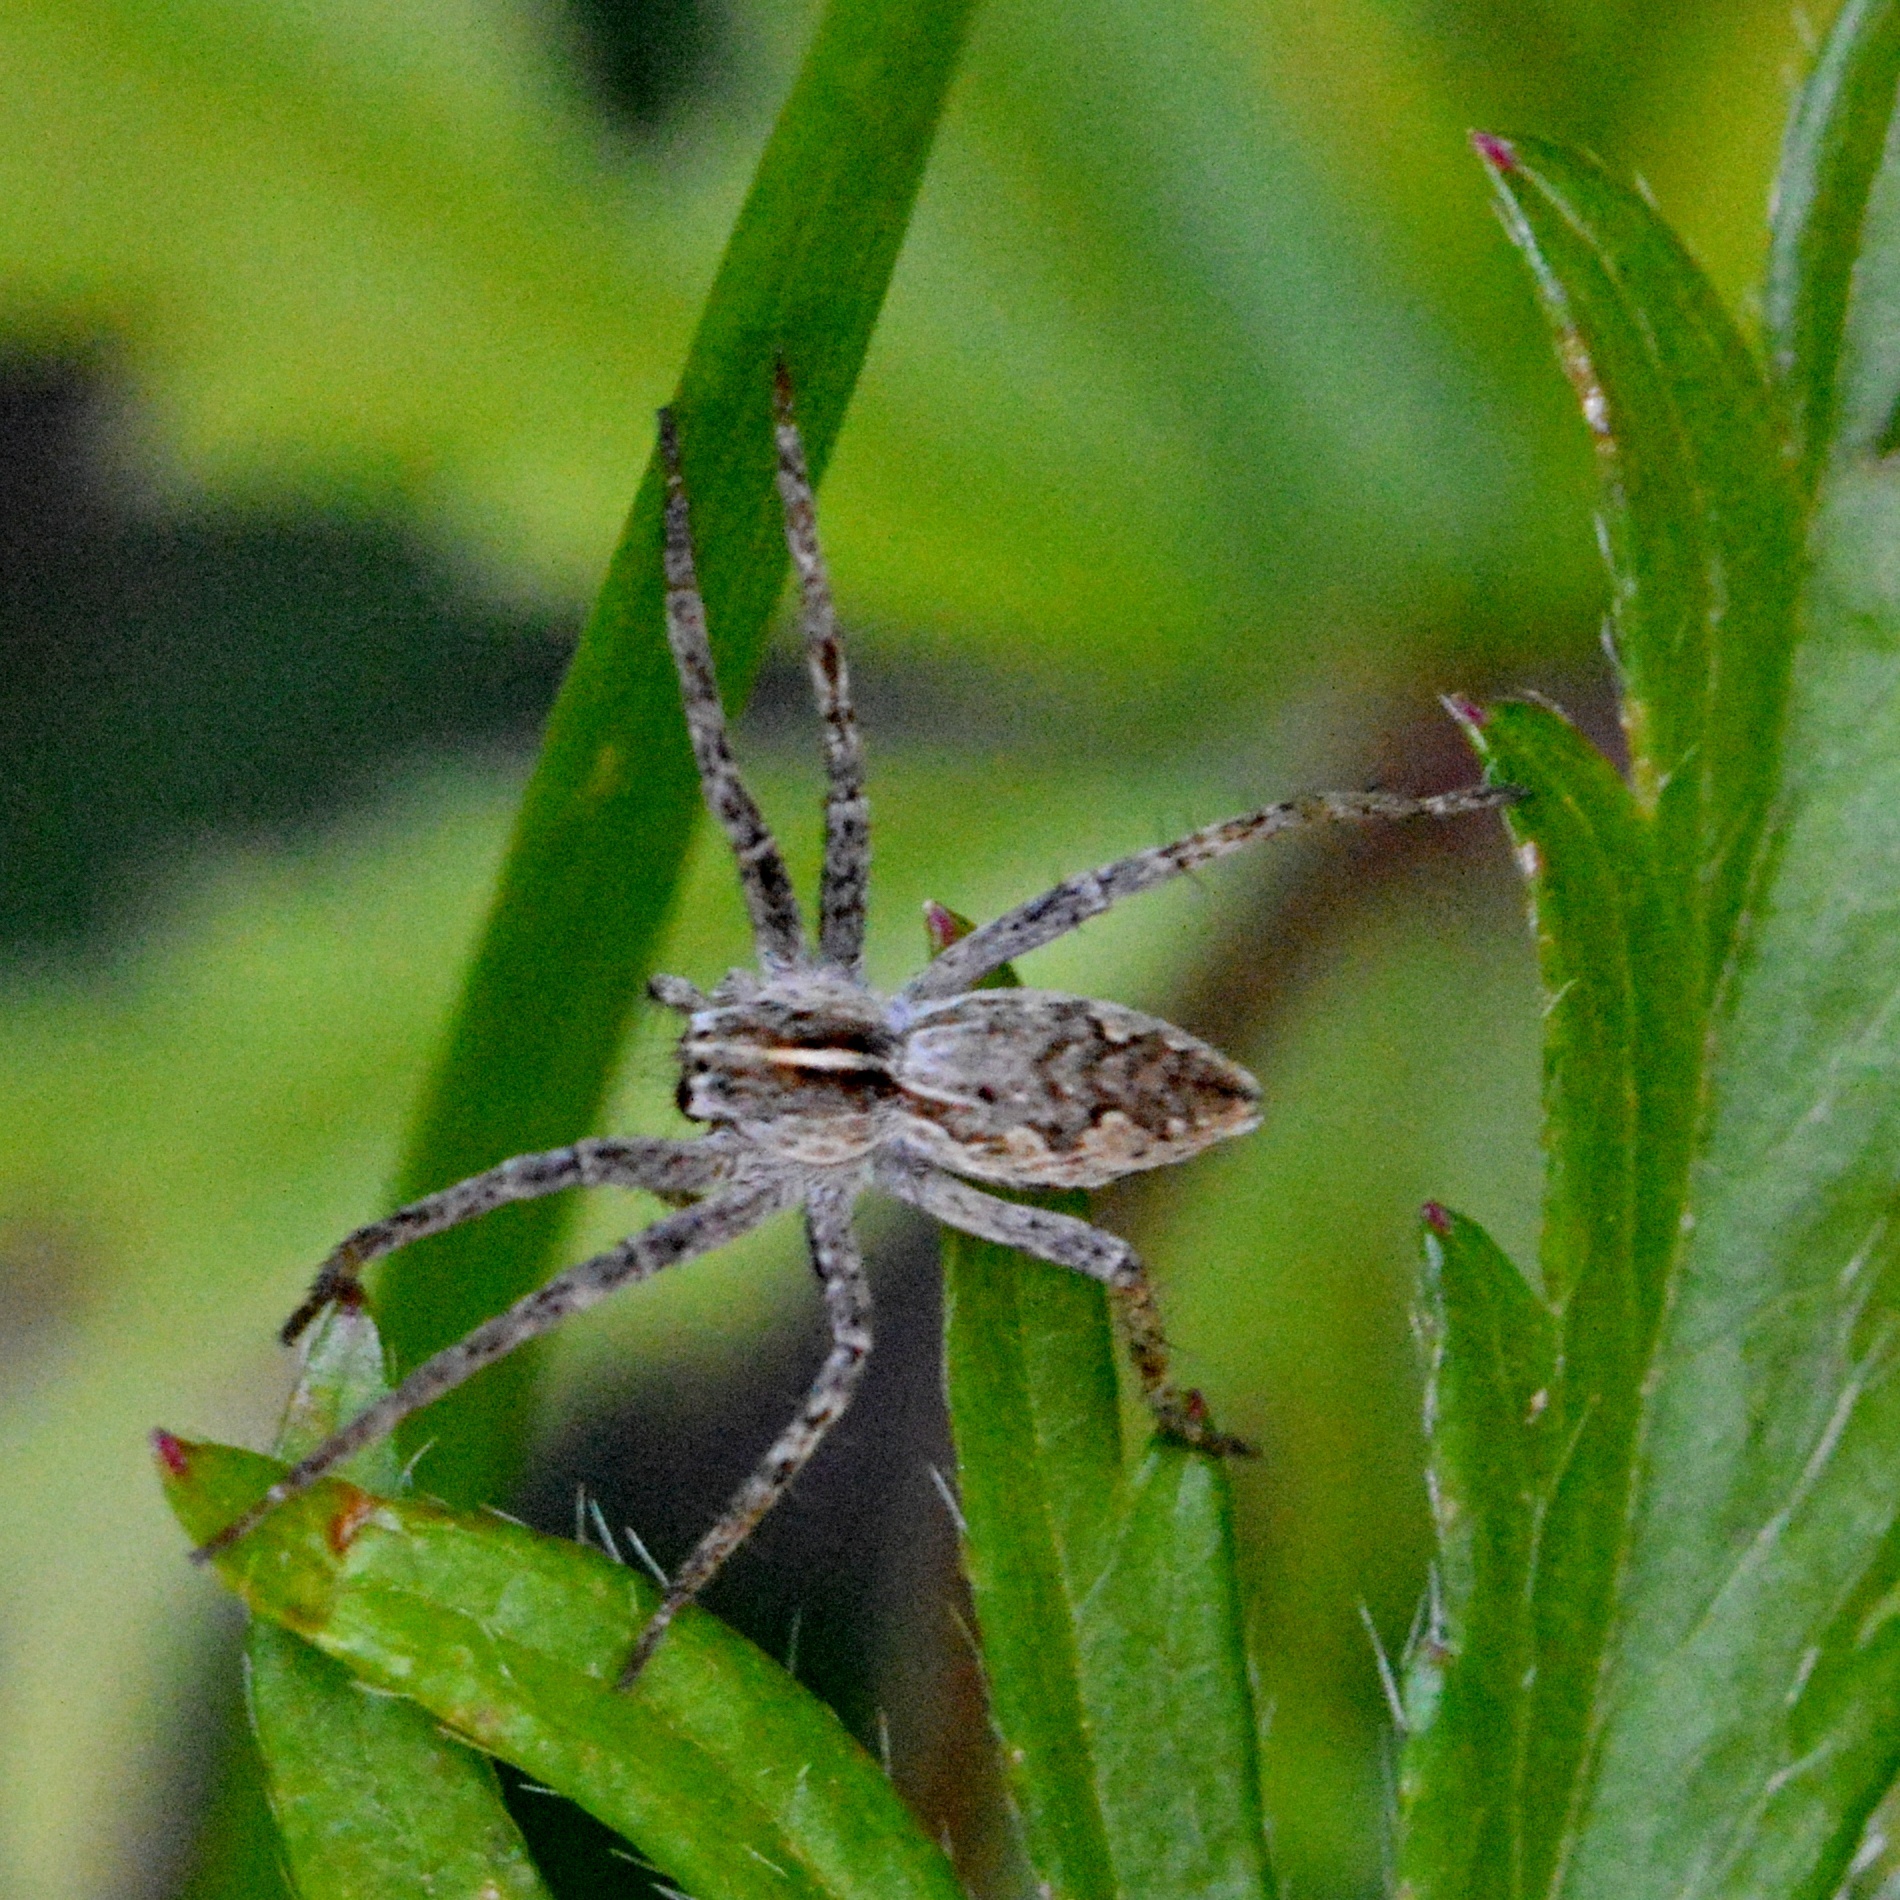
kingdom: Animalia
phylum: Arthropoda
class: Arachnida
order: Araneae
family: Pisauridae
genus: Pisaura
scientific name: Pisaura mirabilis
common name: Tent spider
